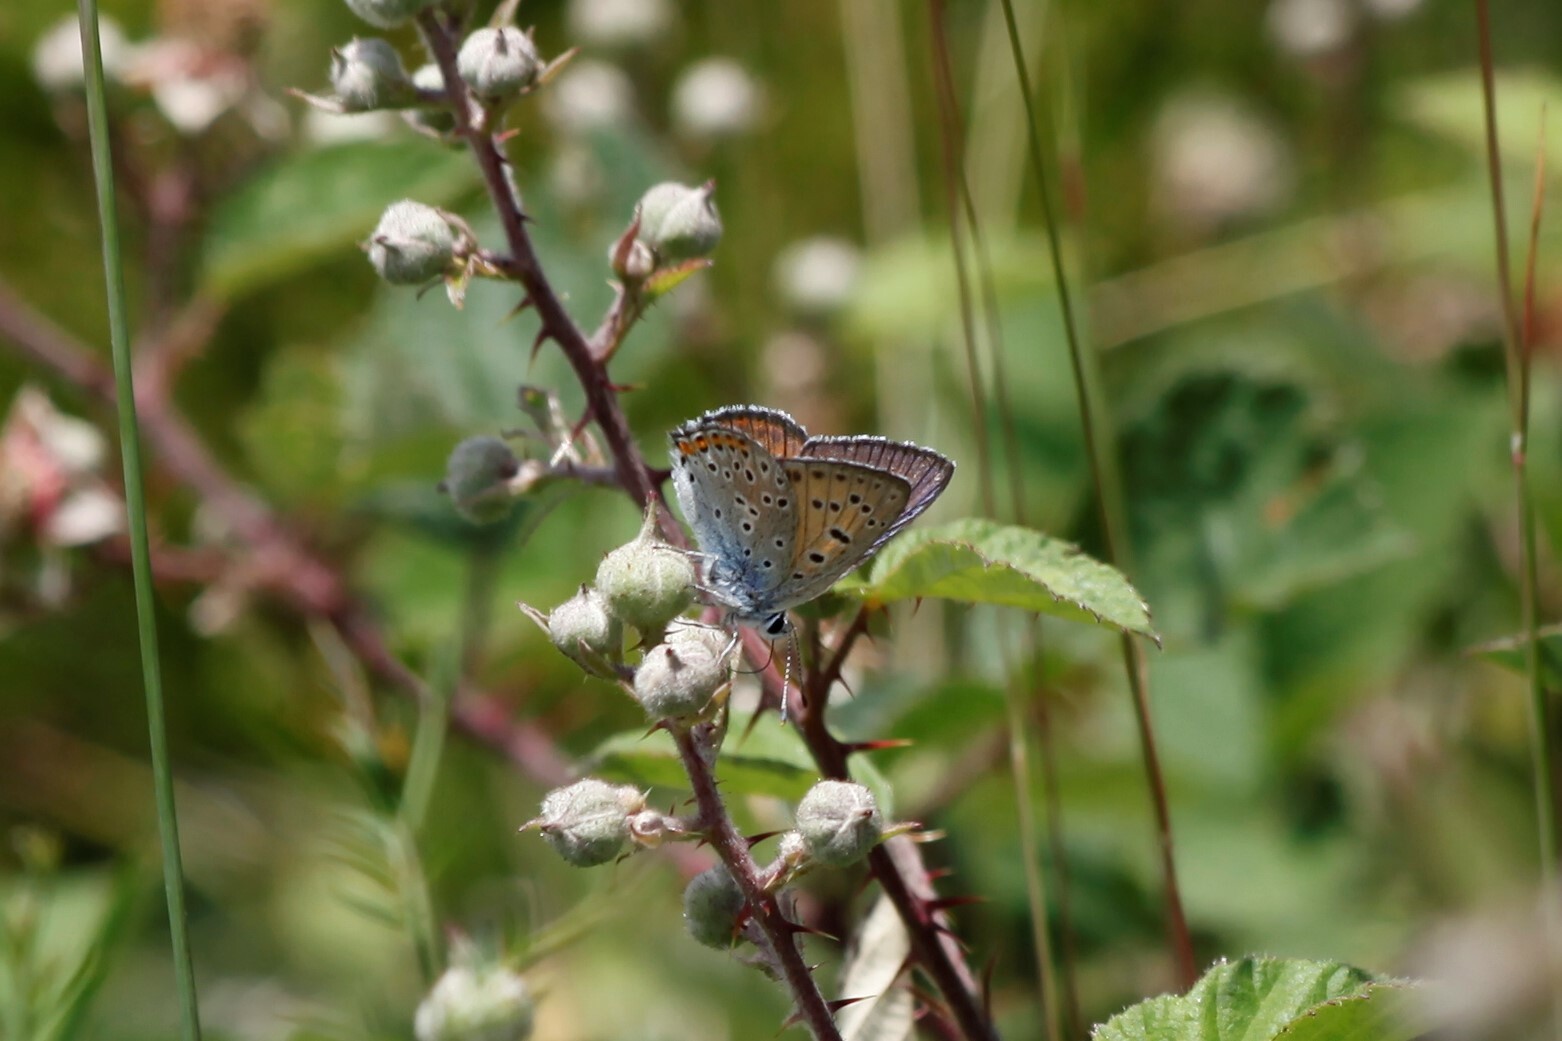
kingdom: Animalia
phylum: Arthropoda
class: Insecta
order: Lepidoptera
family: Lycaenidae
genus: Lycaena
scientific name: Lycaena alciphron
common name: Purple-shot copper
